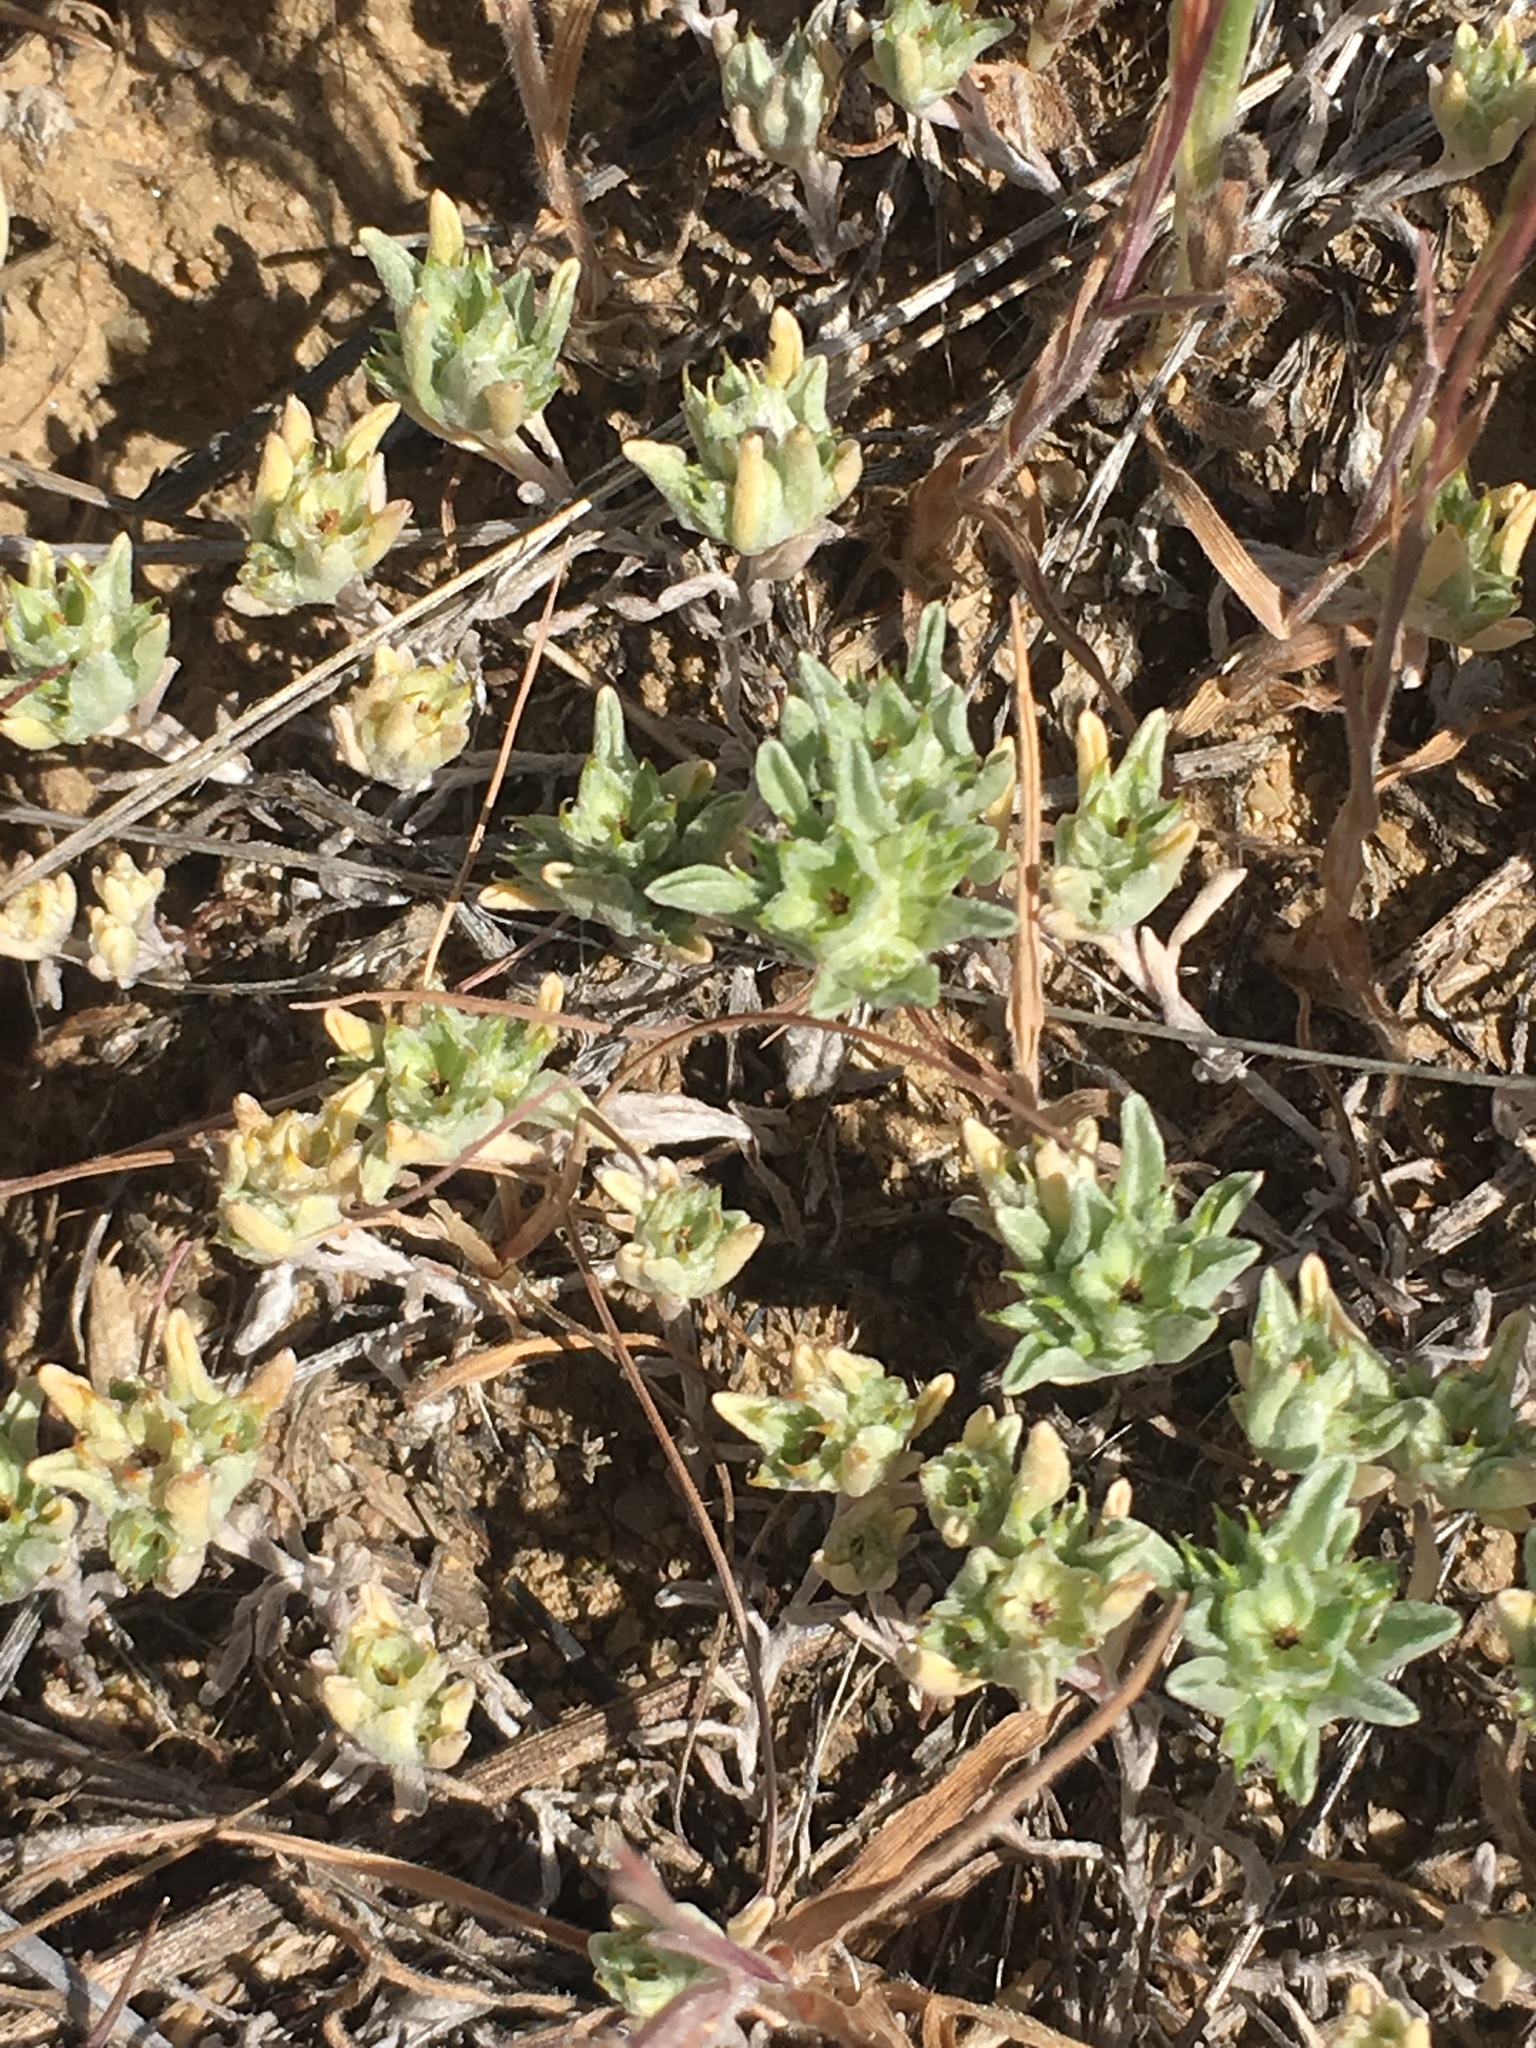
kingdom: Plantae
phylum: Tracheophyta
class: Magnoliopsida
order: Asterales
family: Asteraceae
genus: Ancistrocarphus
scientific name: Ancistrocarphus filagineus
